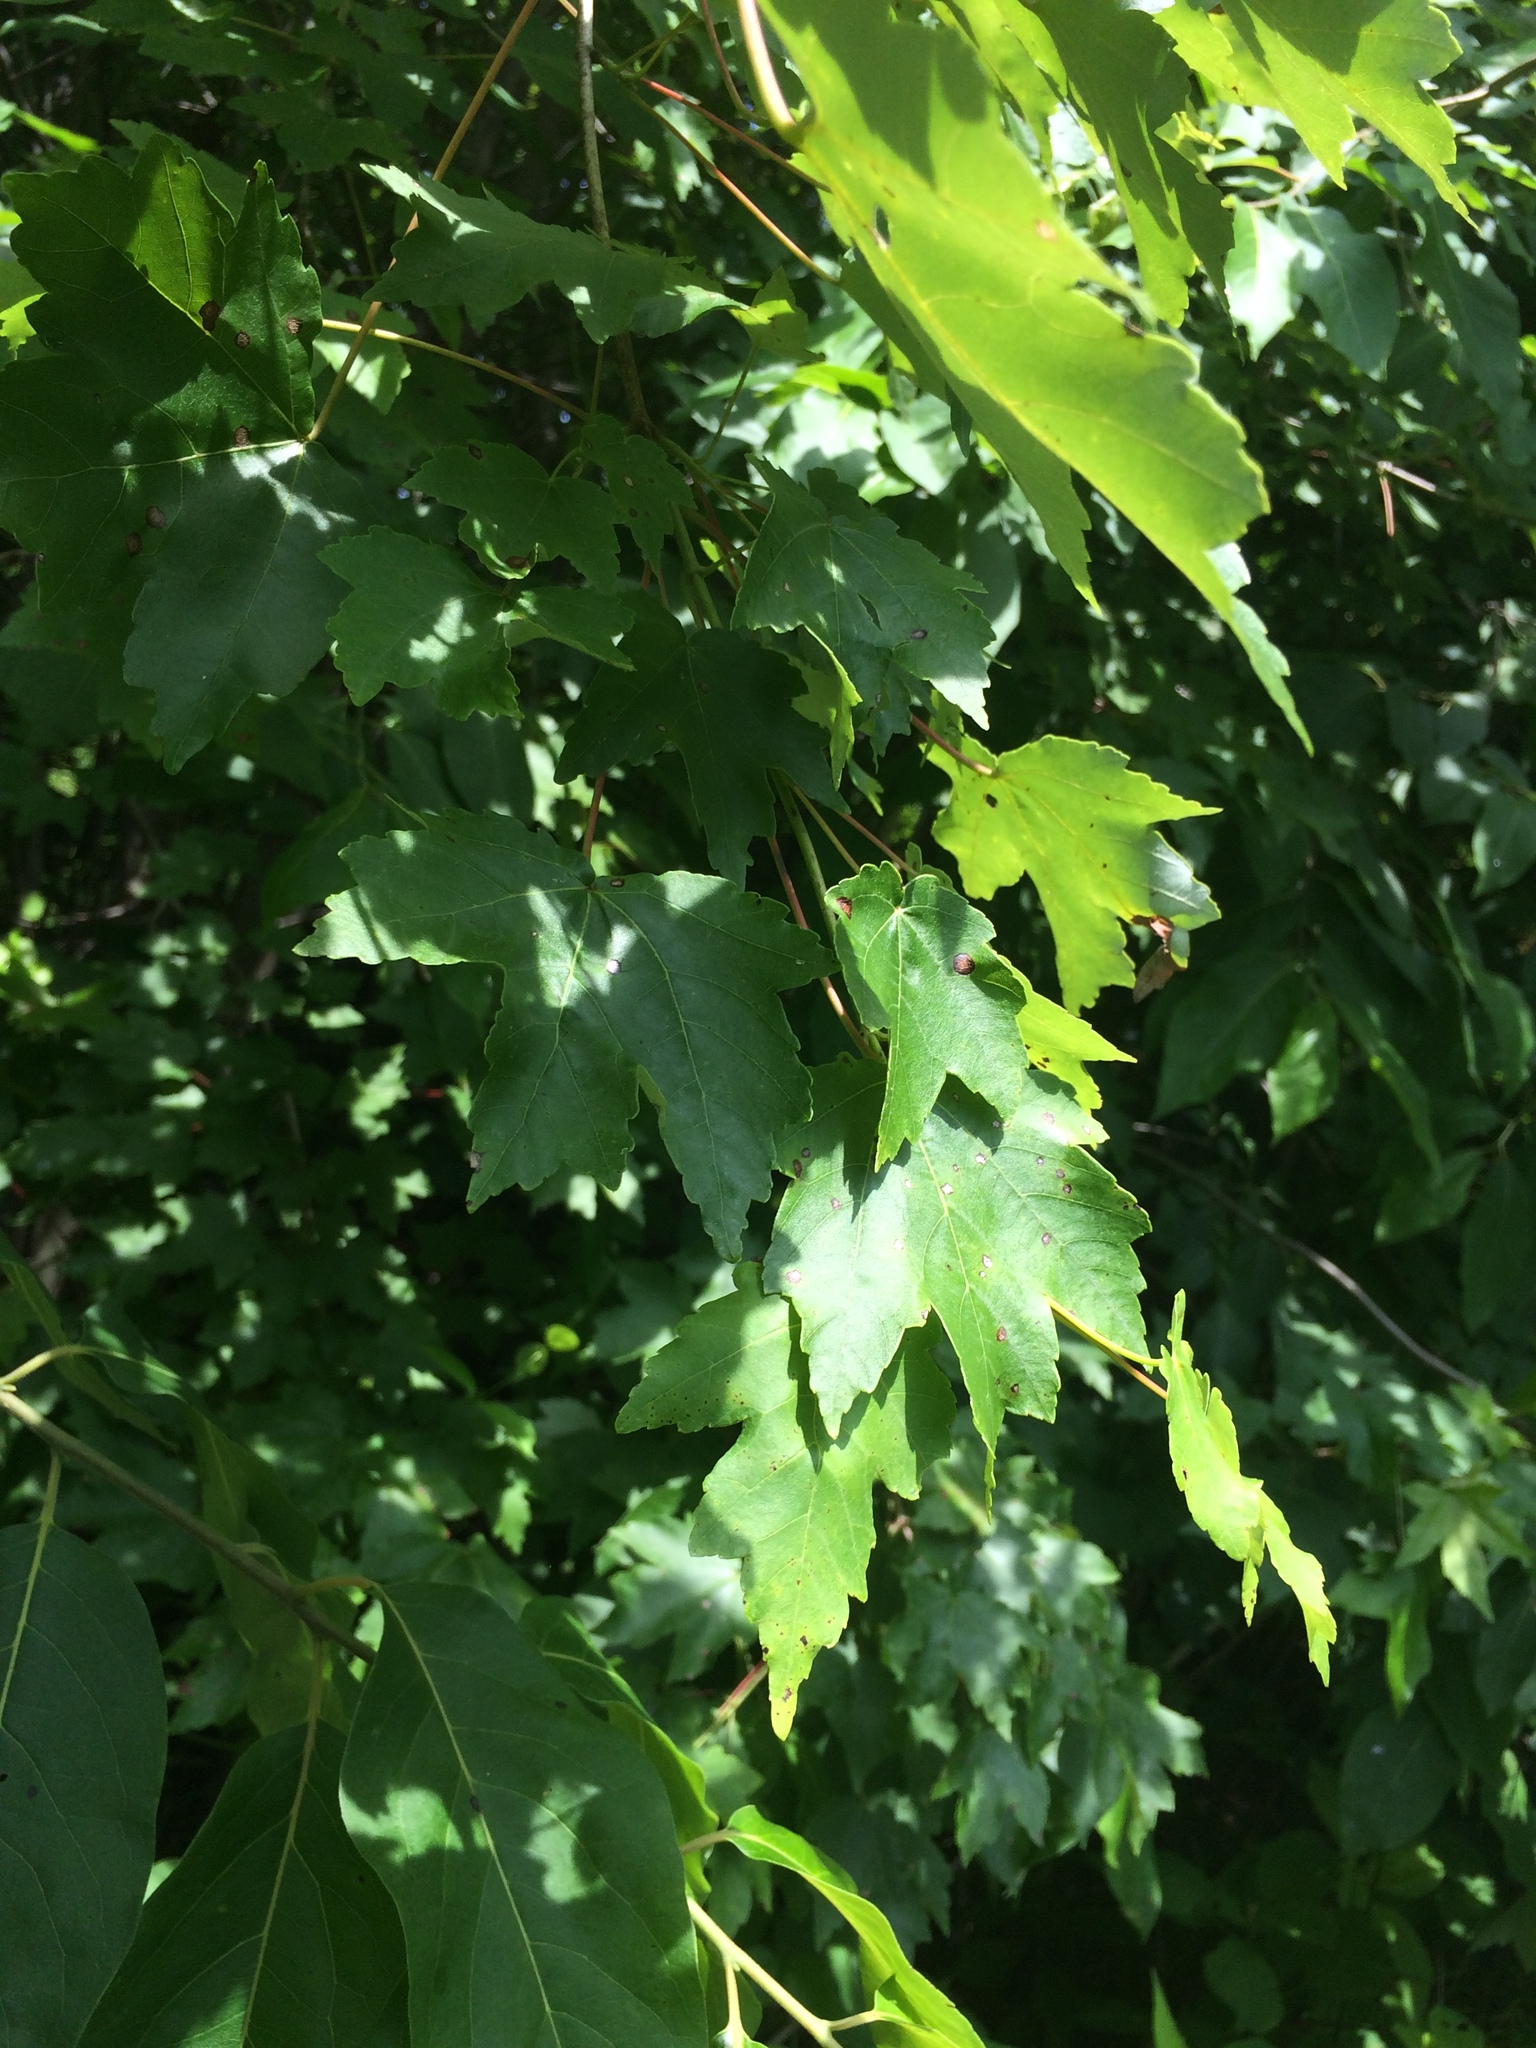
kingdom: Plantae
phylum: Tracheophyta
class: Magnoliopsida
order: Sapindales
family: Sapindaceae
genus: Acer
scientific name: Acer rubrum
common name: Red maple
